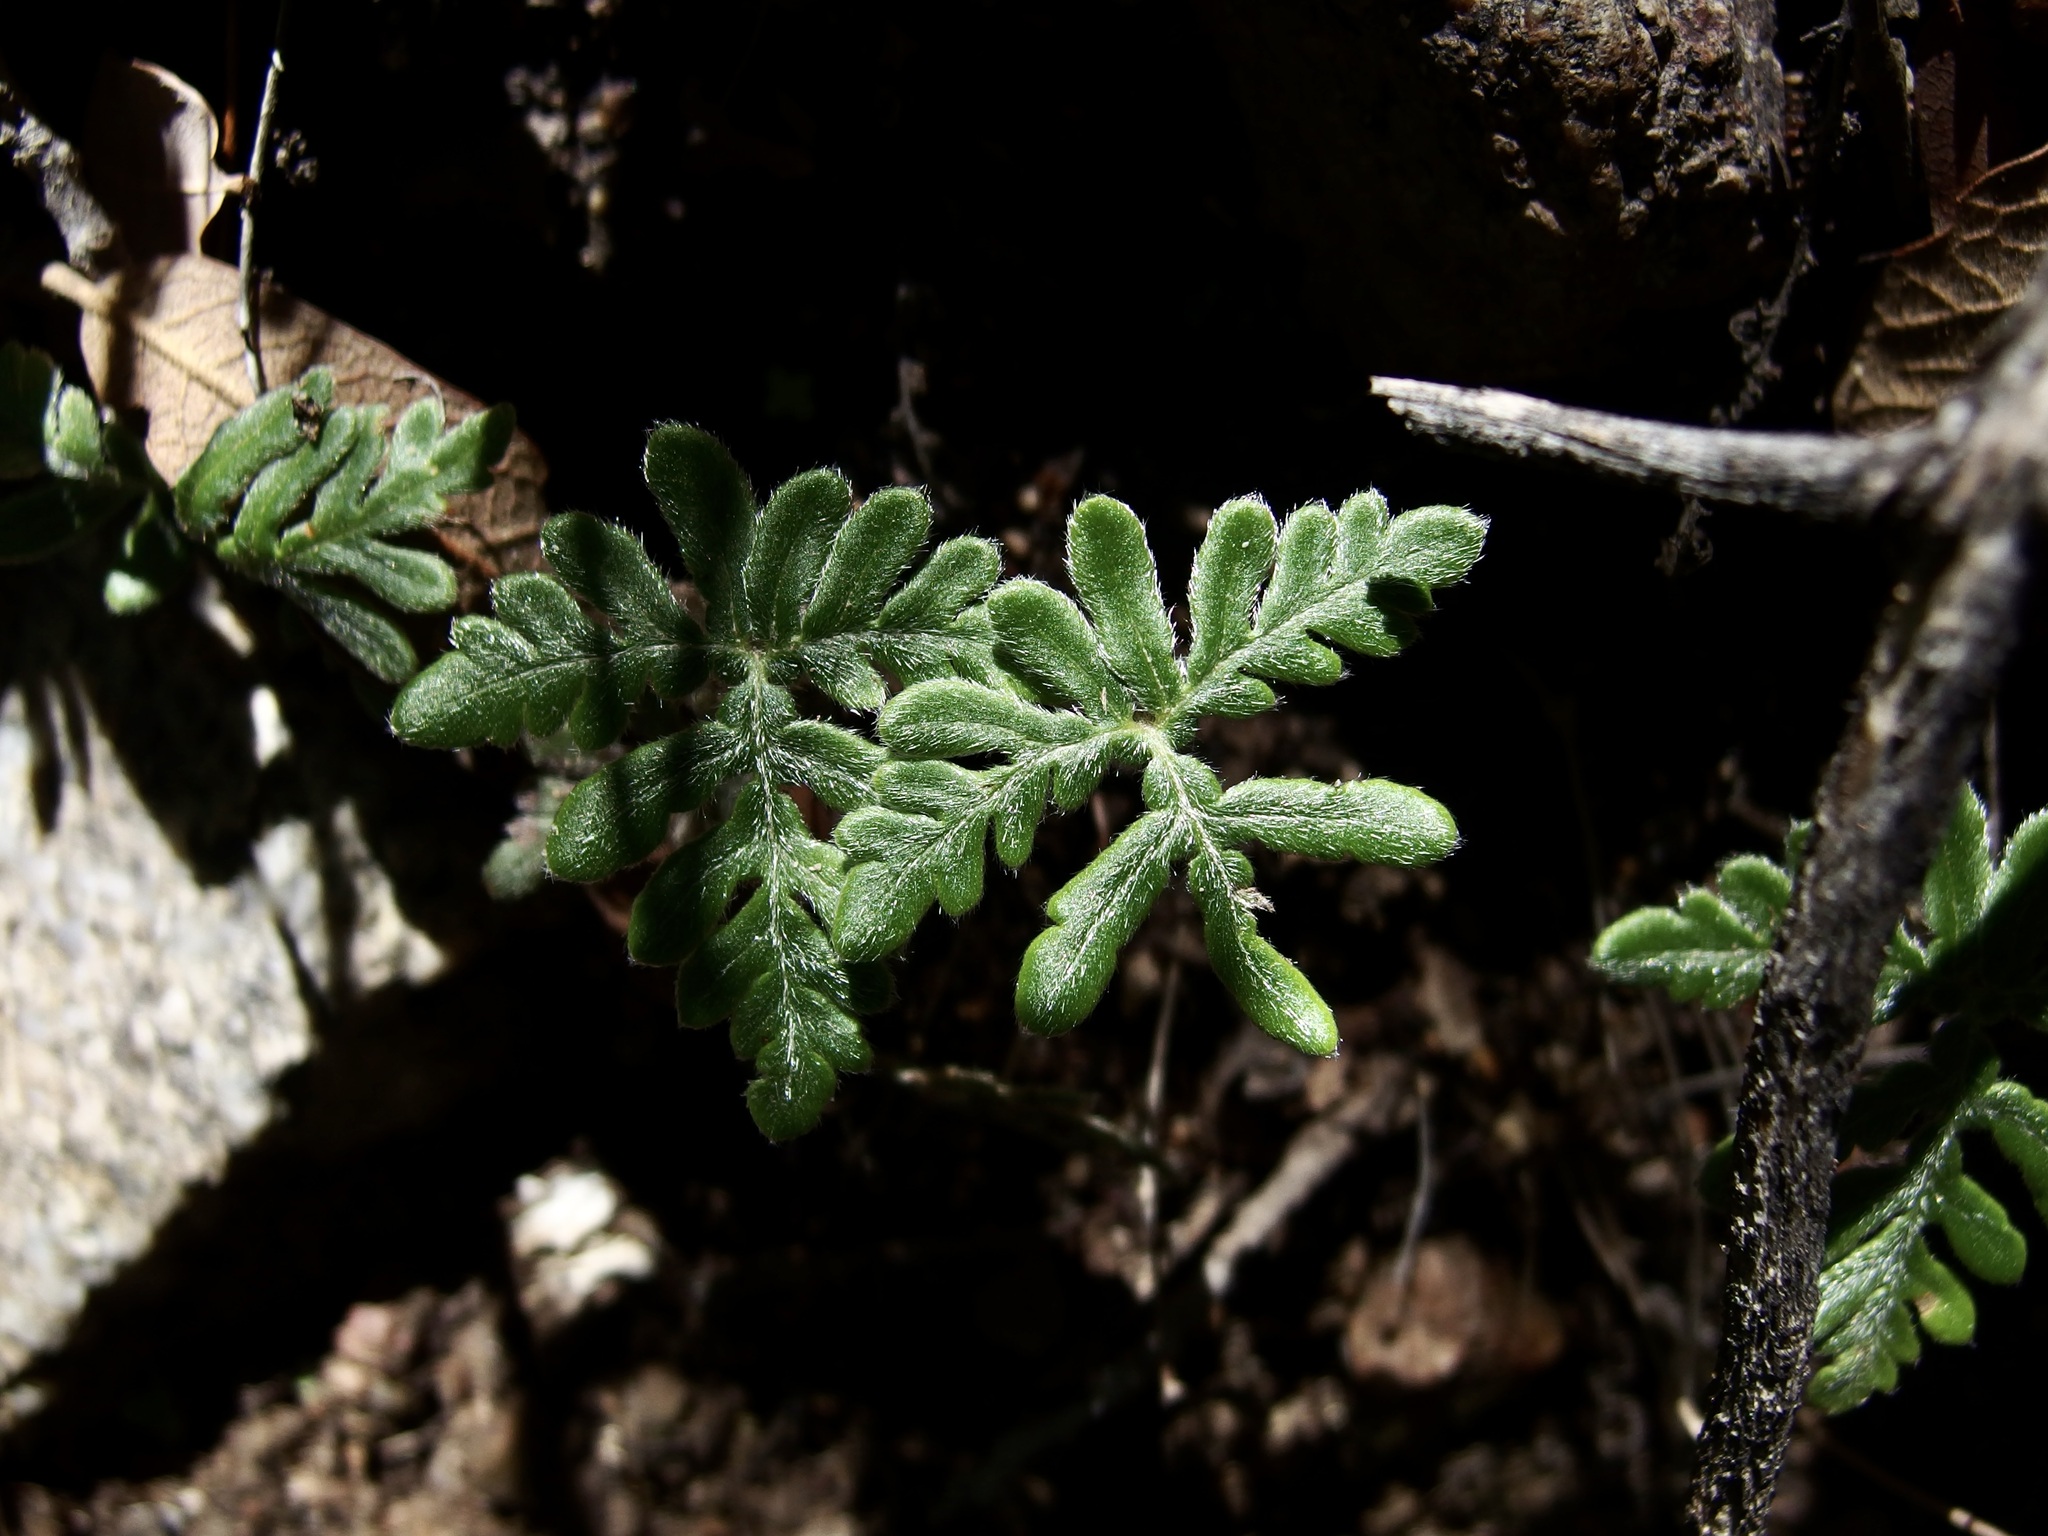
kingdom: Plantae
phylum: Tracheophyta
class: Polypodiopsida
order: Polypodiales
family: Pteridaceae
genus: Bommeria
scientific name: Bommeria hispida
